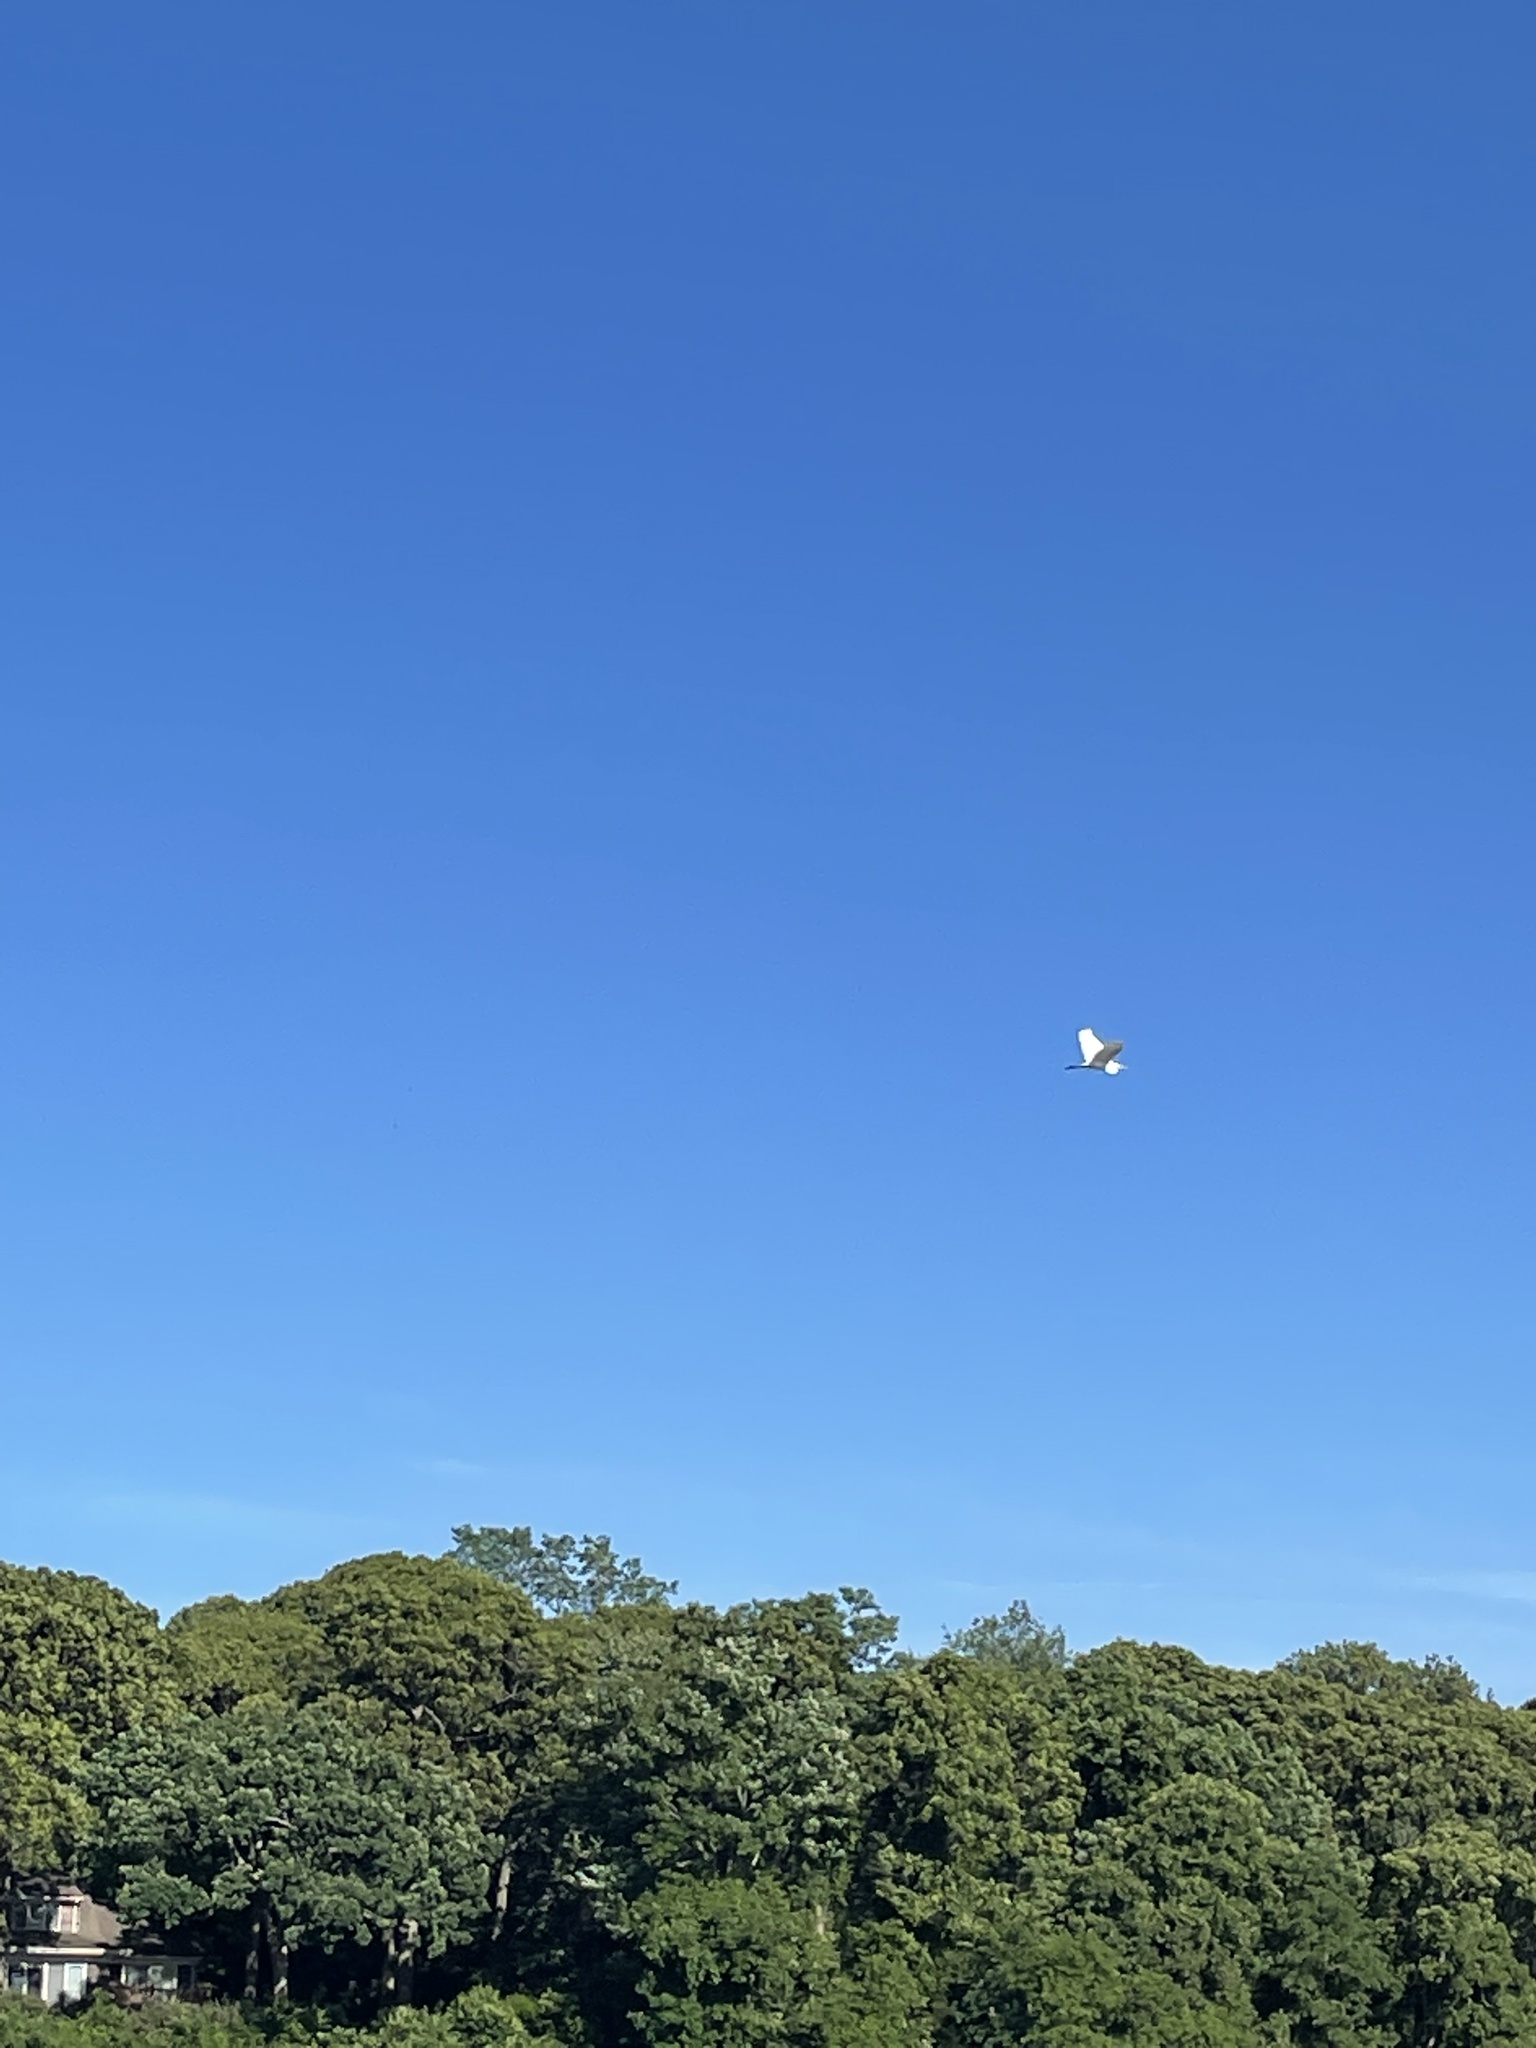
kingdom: Animalia
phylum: Chordata
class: Aves
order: Pelecaniformes
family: Ardeidae
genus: Ardea
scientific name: Ardea alba
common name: Great egret
